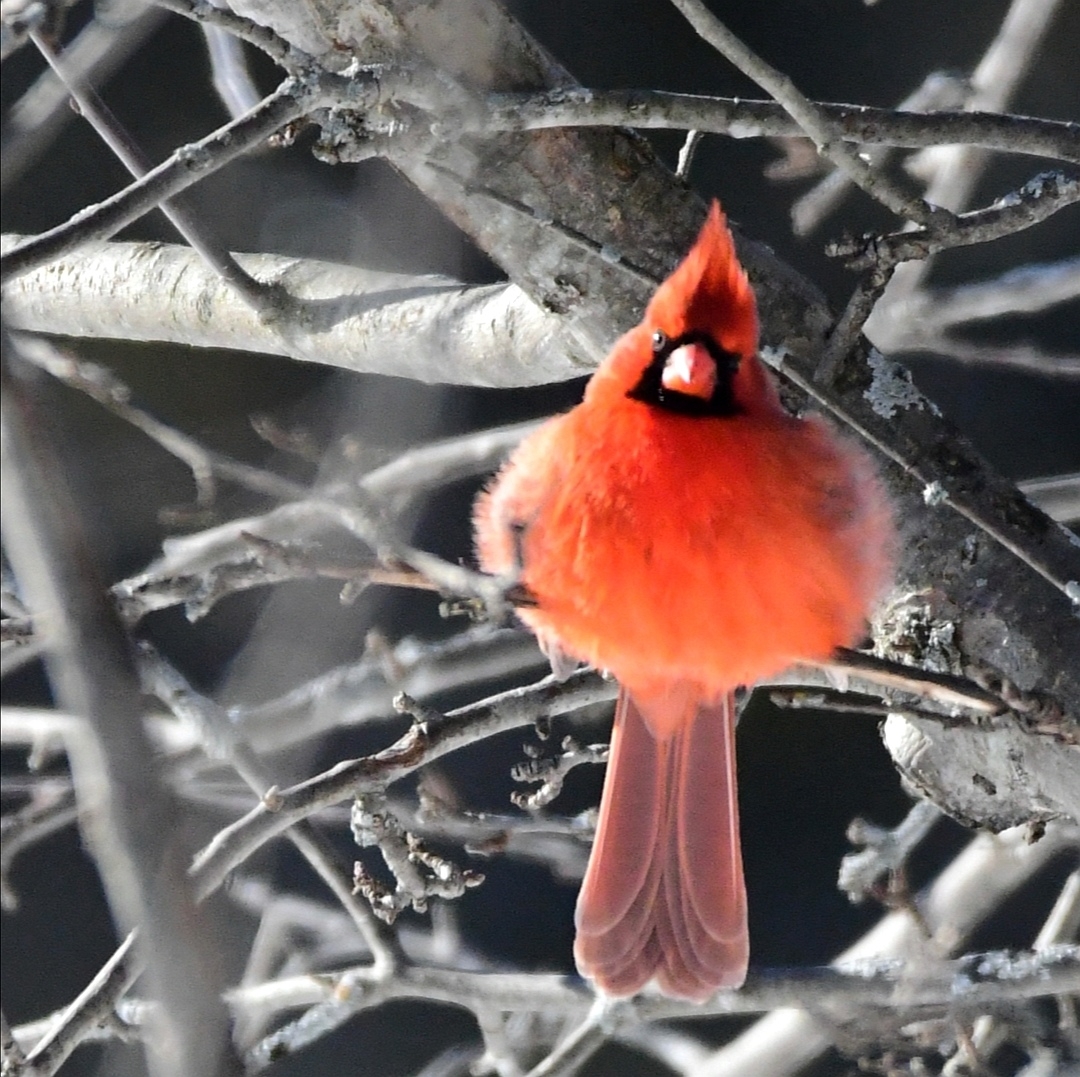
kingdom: Animalia
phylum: Chordata
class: Aves
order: Passeriformes
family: Cardinalidae
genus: Cardinalis
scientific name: Cardinalis cardinalis
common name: Northern cardinal
